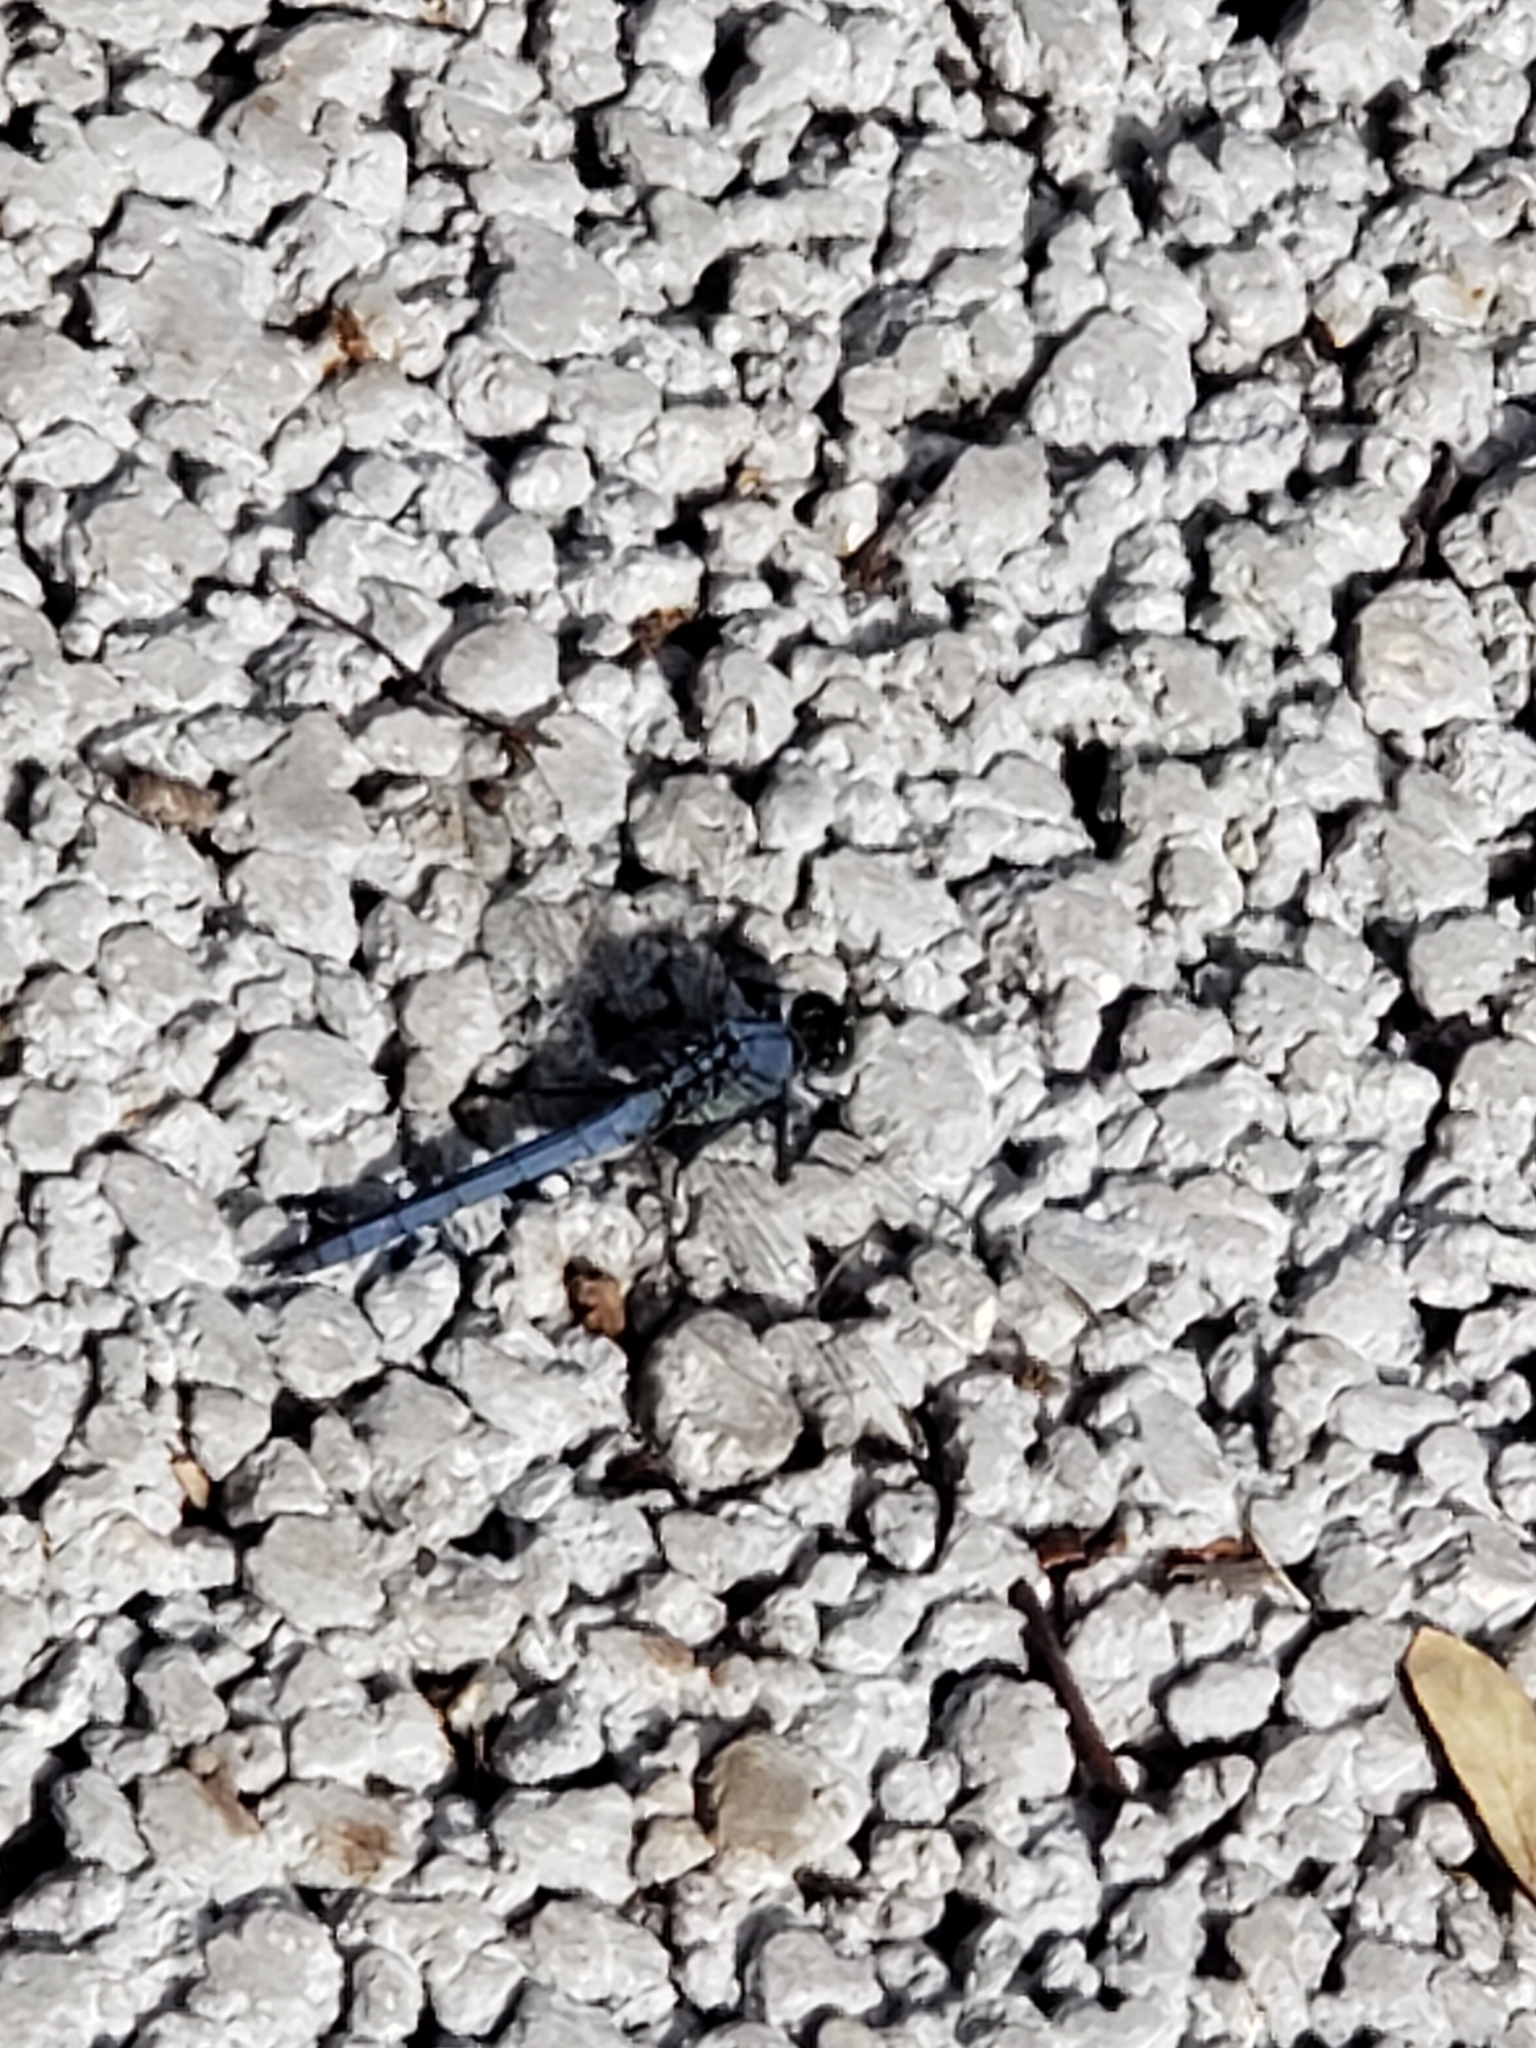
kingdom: Animalia
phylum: Arthropoda
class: Insecta
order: Odonata
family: Libellulidae
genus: Erythemis
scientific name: Erythemis simplicicollis
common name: Eastern pondhawk
